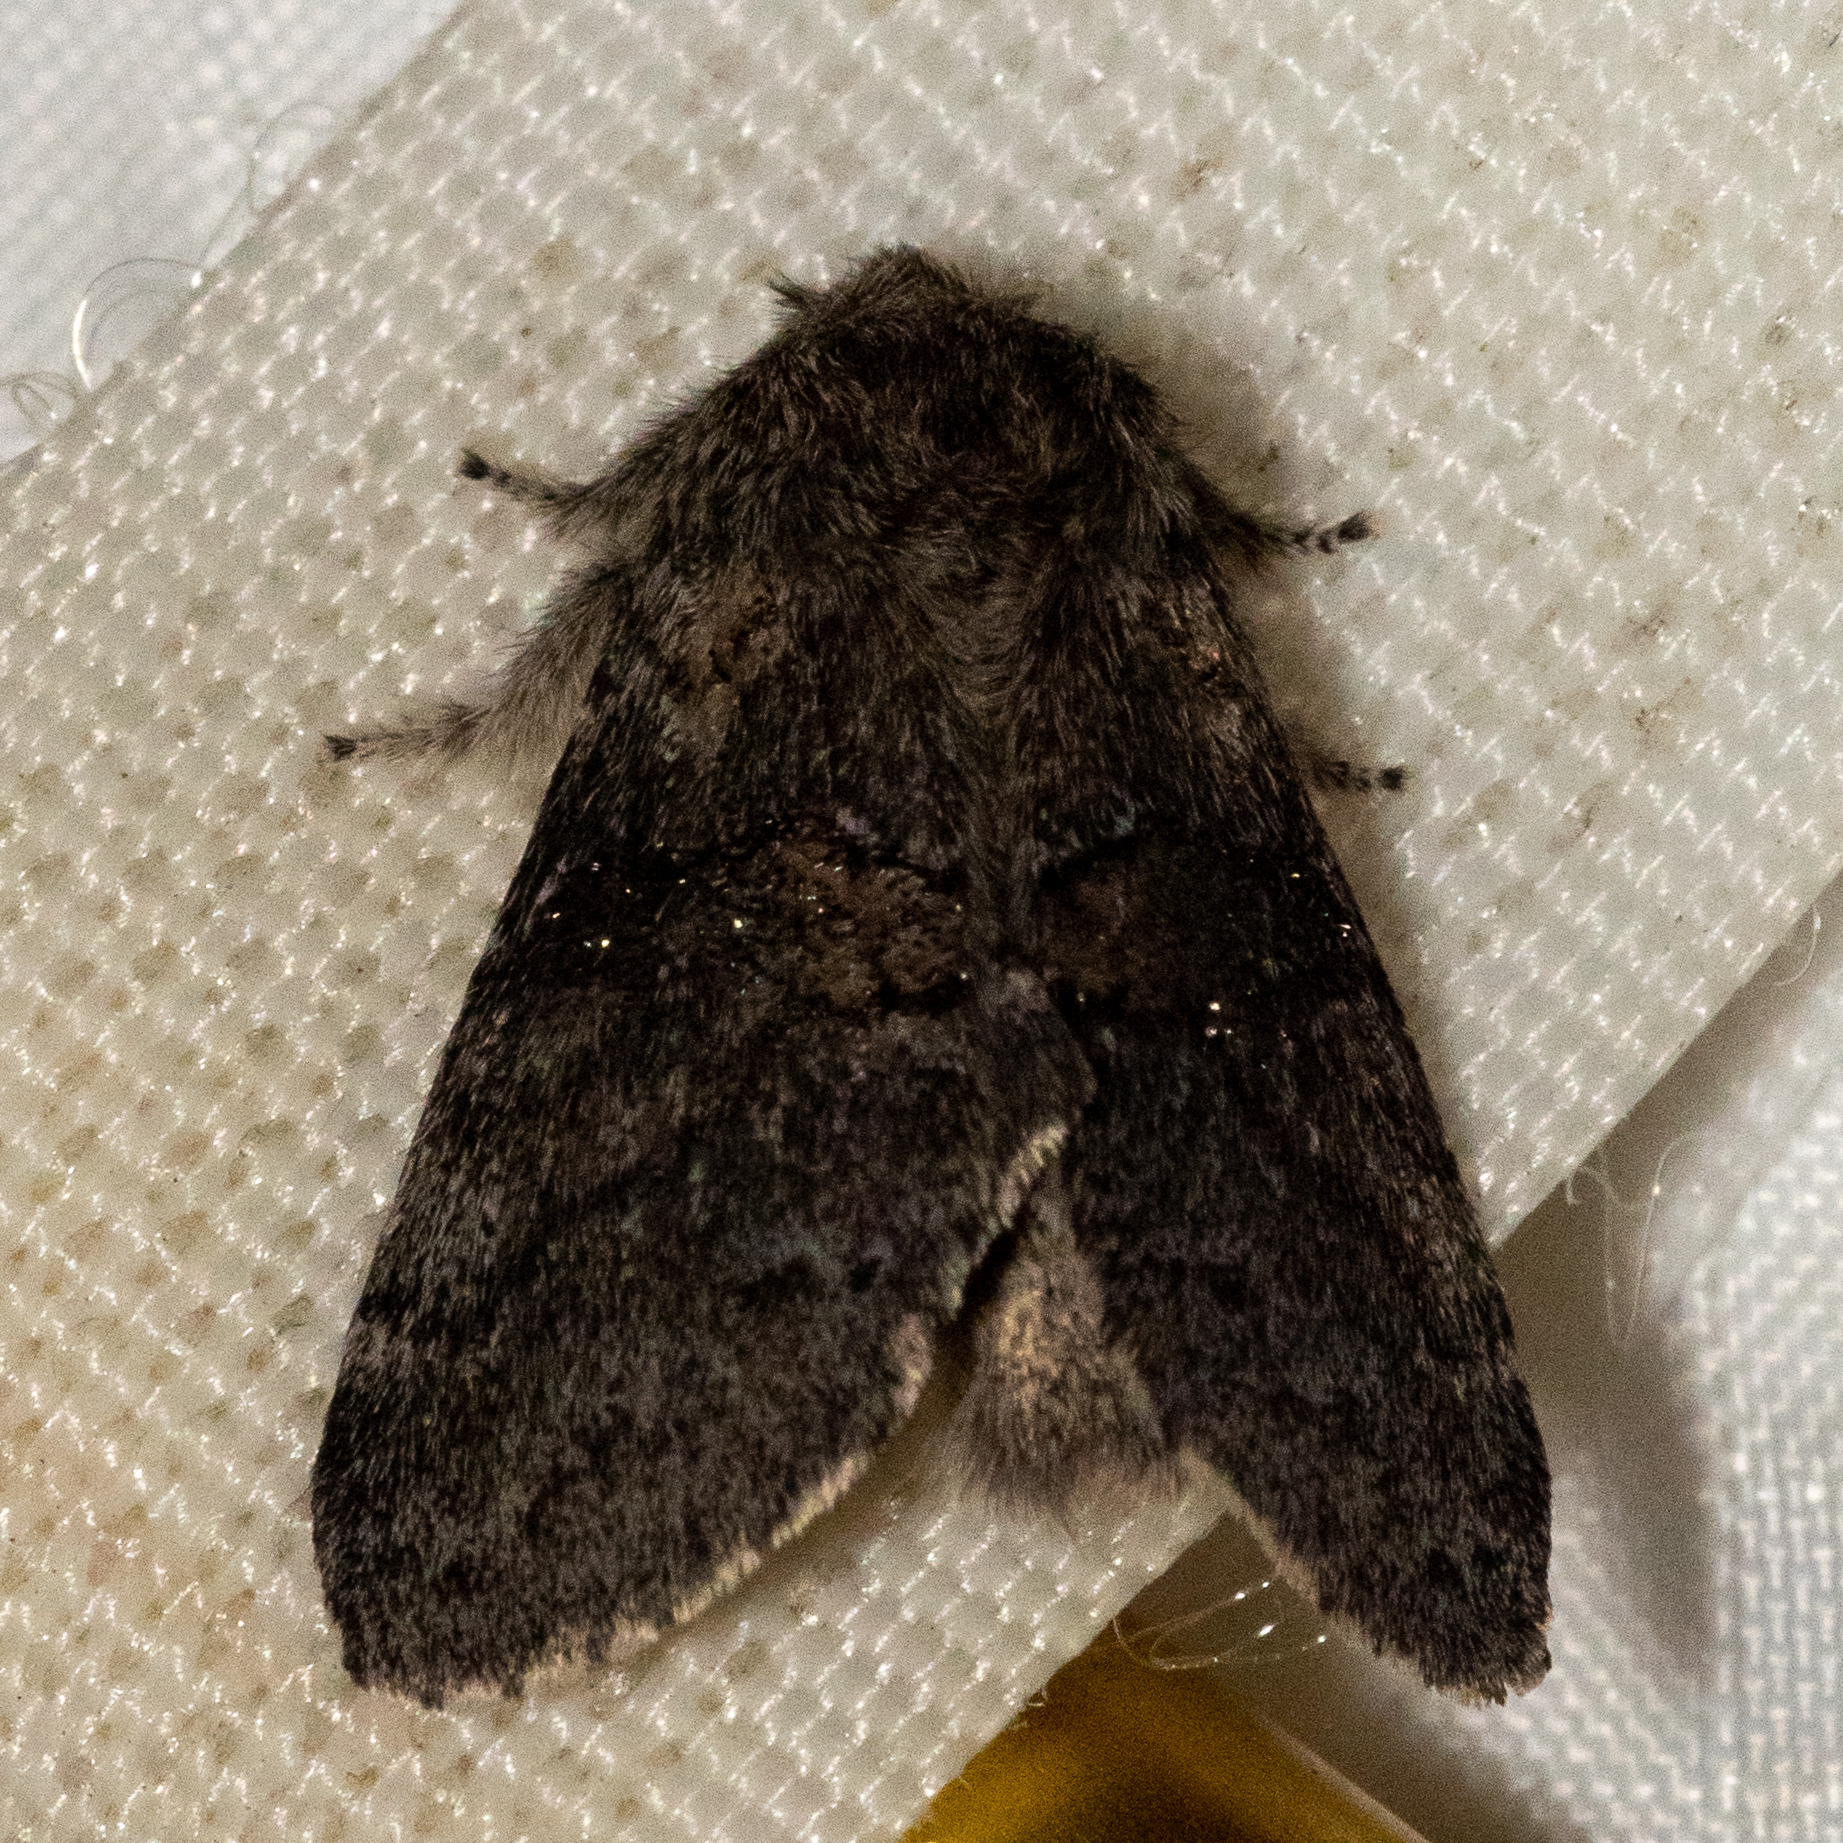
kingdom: Animalia
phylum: Arthropoda
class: Insecta
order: Lepidoptera
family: Notodontidae
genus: Gluphisia
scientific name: Gluphisia septentrionis
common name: Common gluphisia
